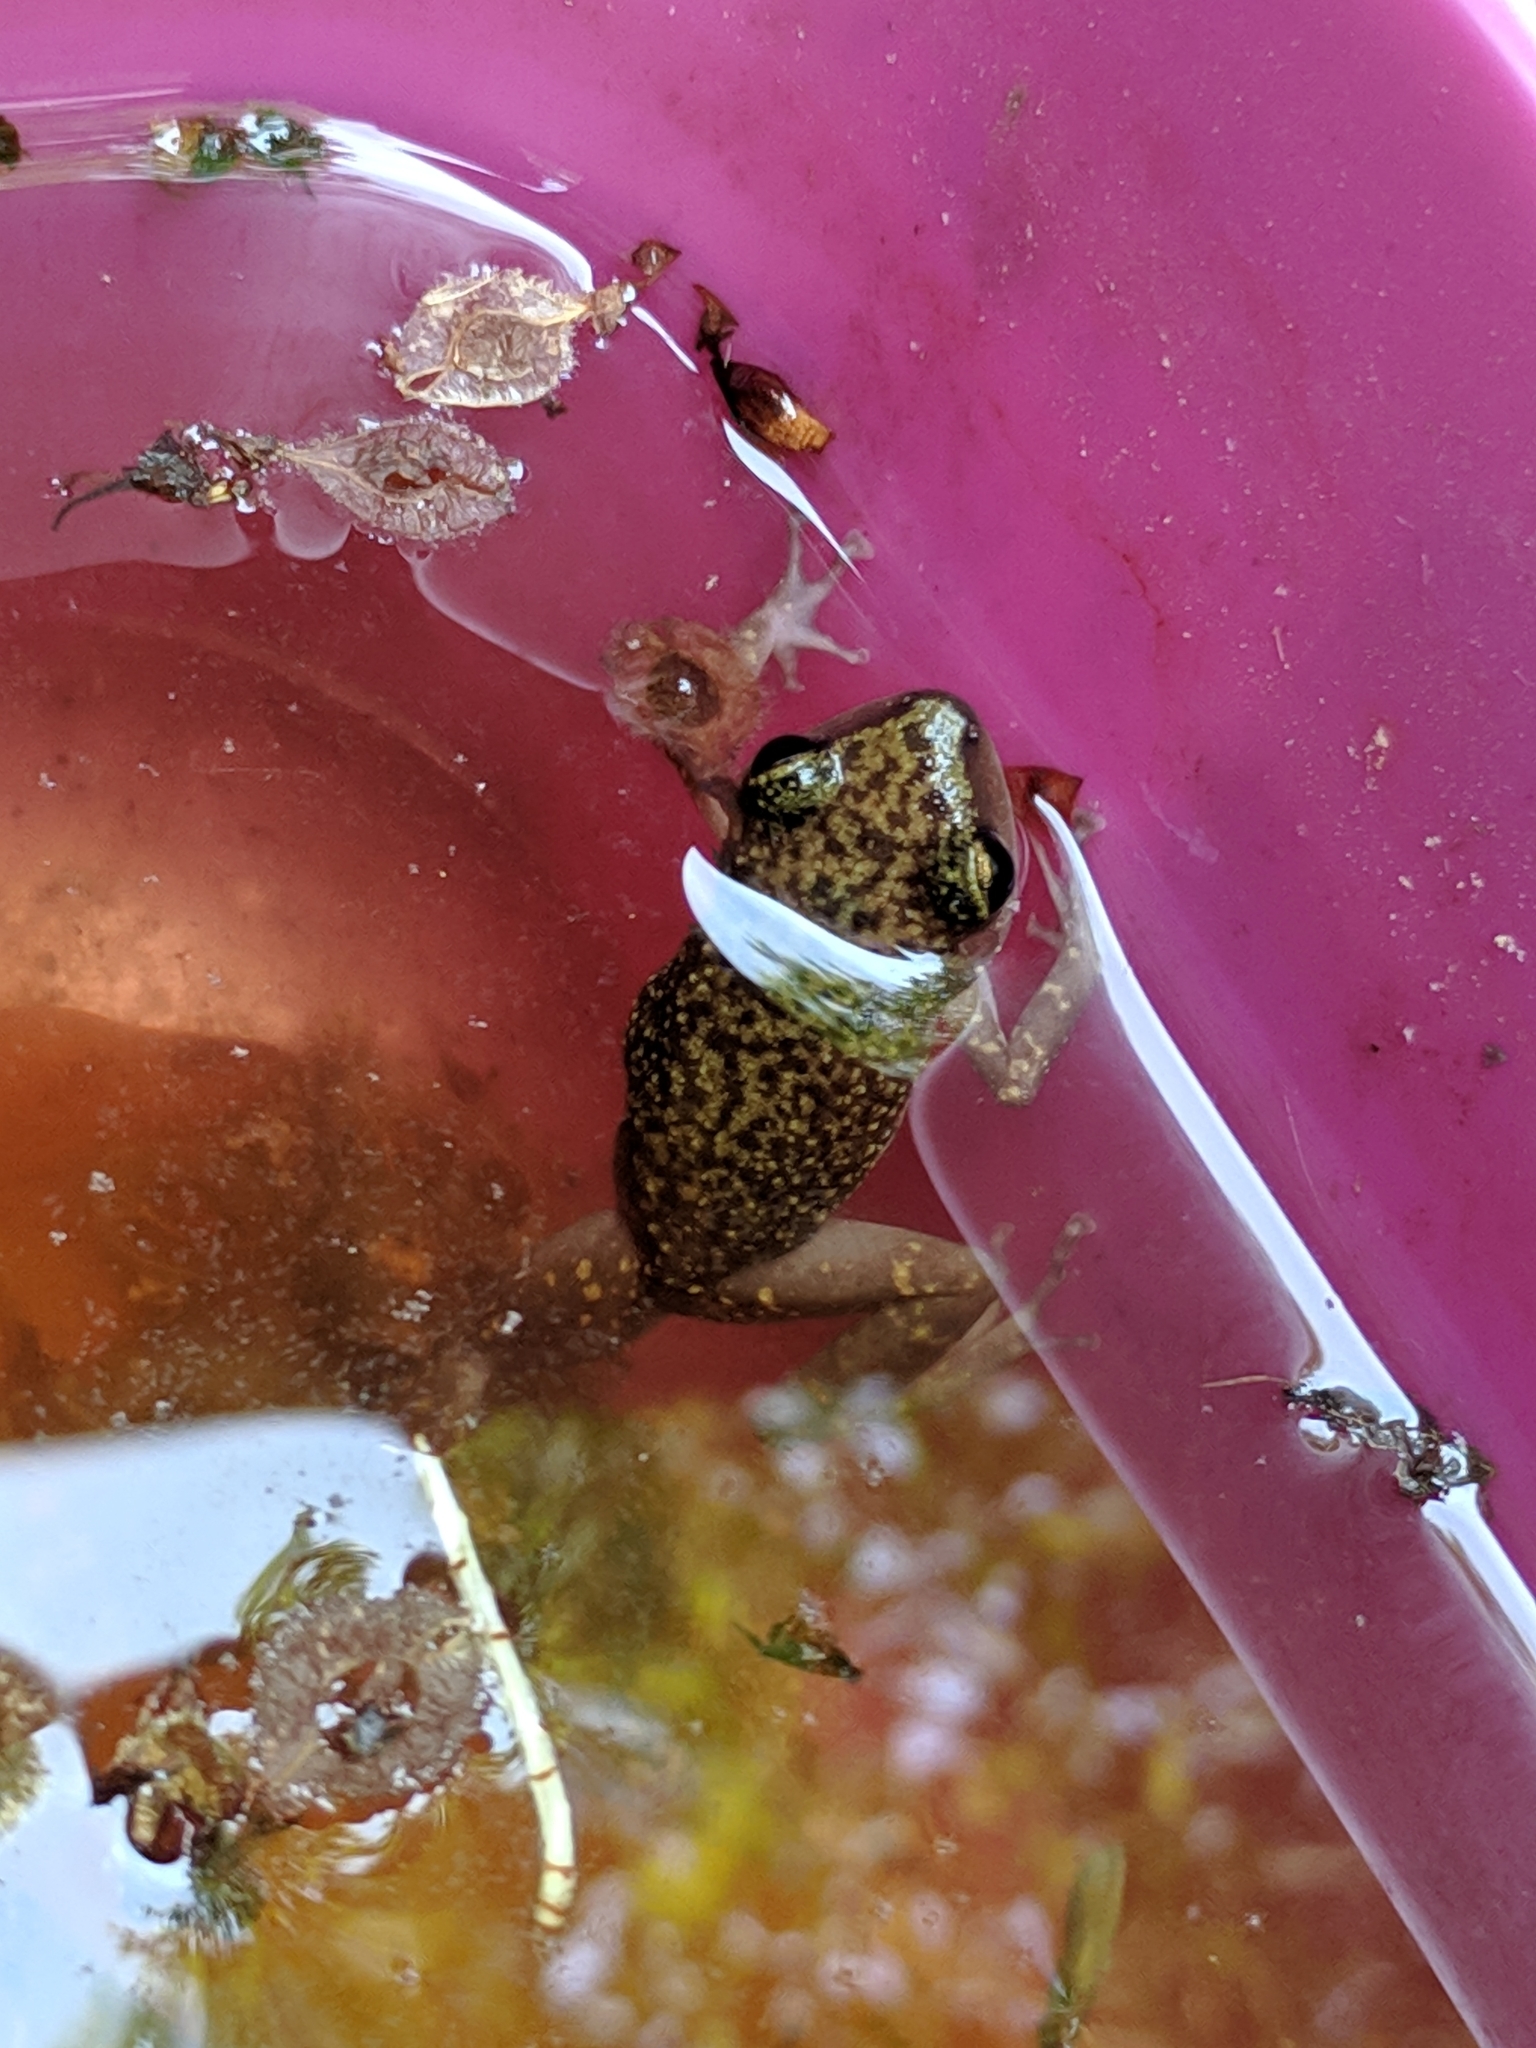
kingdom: Animalia
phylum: Chordata
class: Amphibia
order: Anura
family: Eleutherodactylidae
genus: Eleutherodactylus
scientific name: Eleutherodactylus marnockii
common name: Cliff chirping frog
